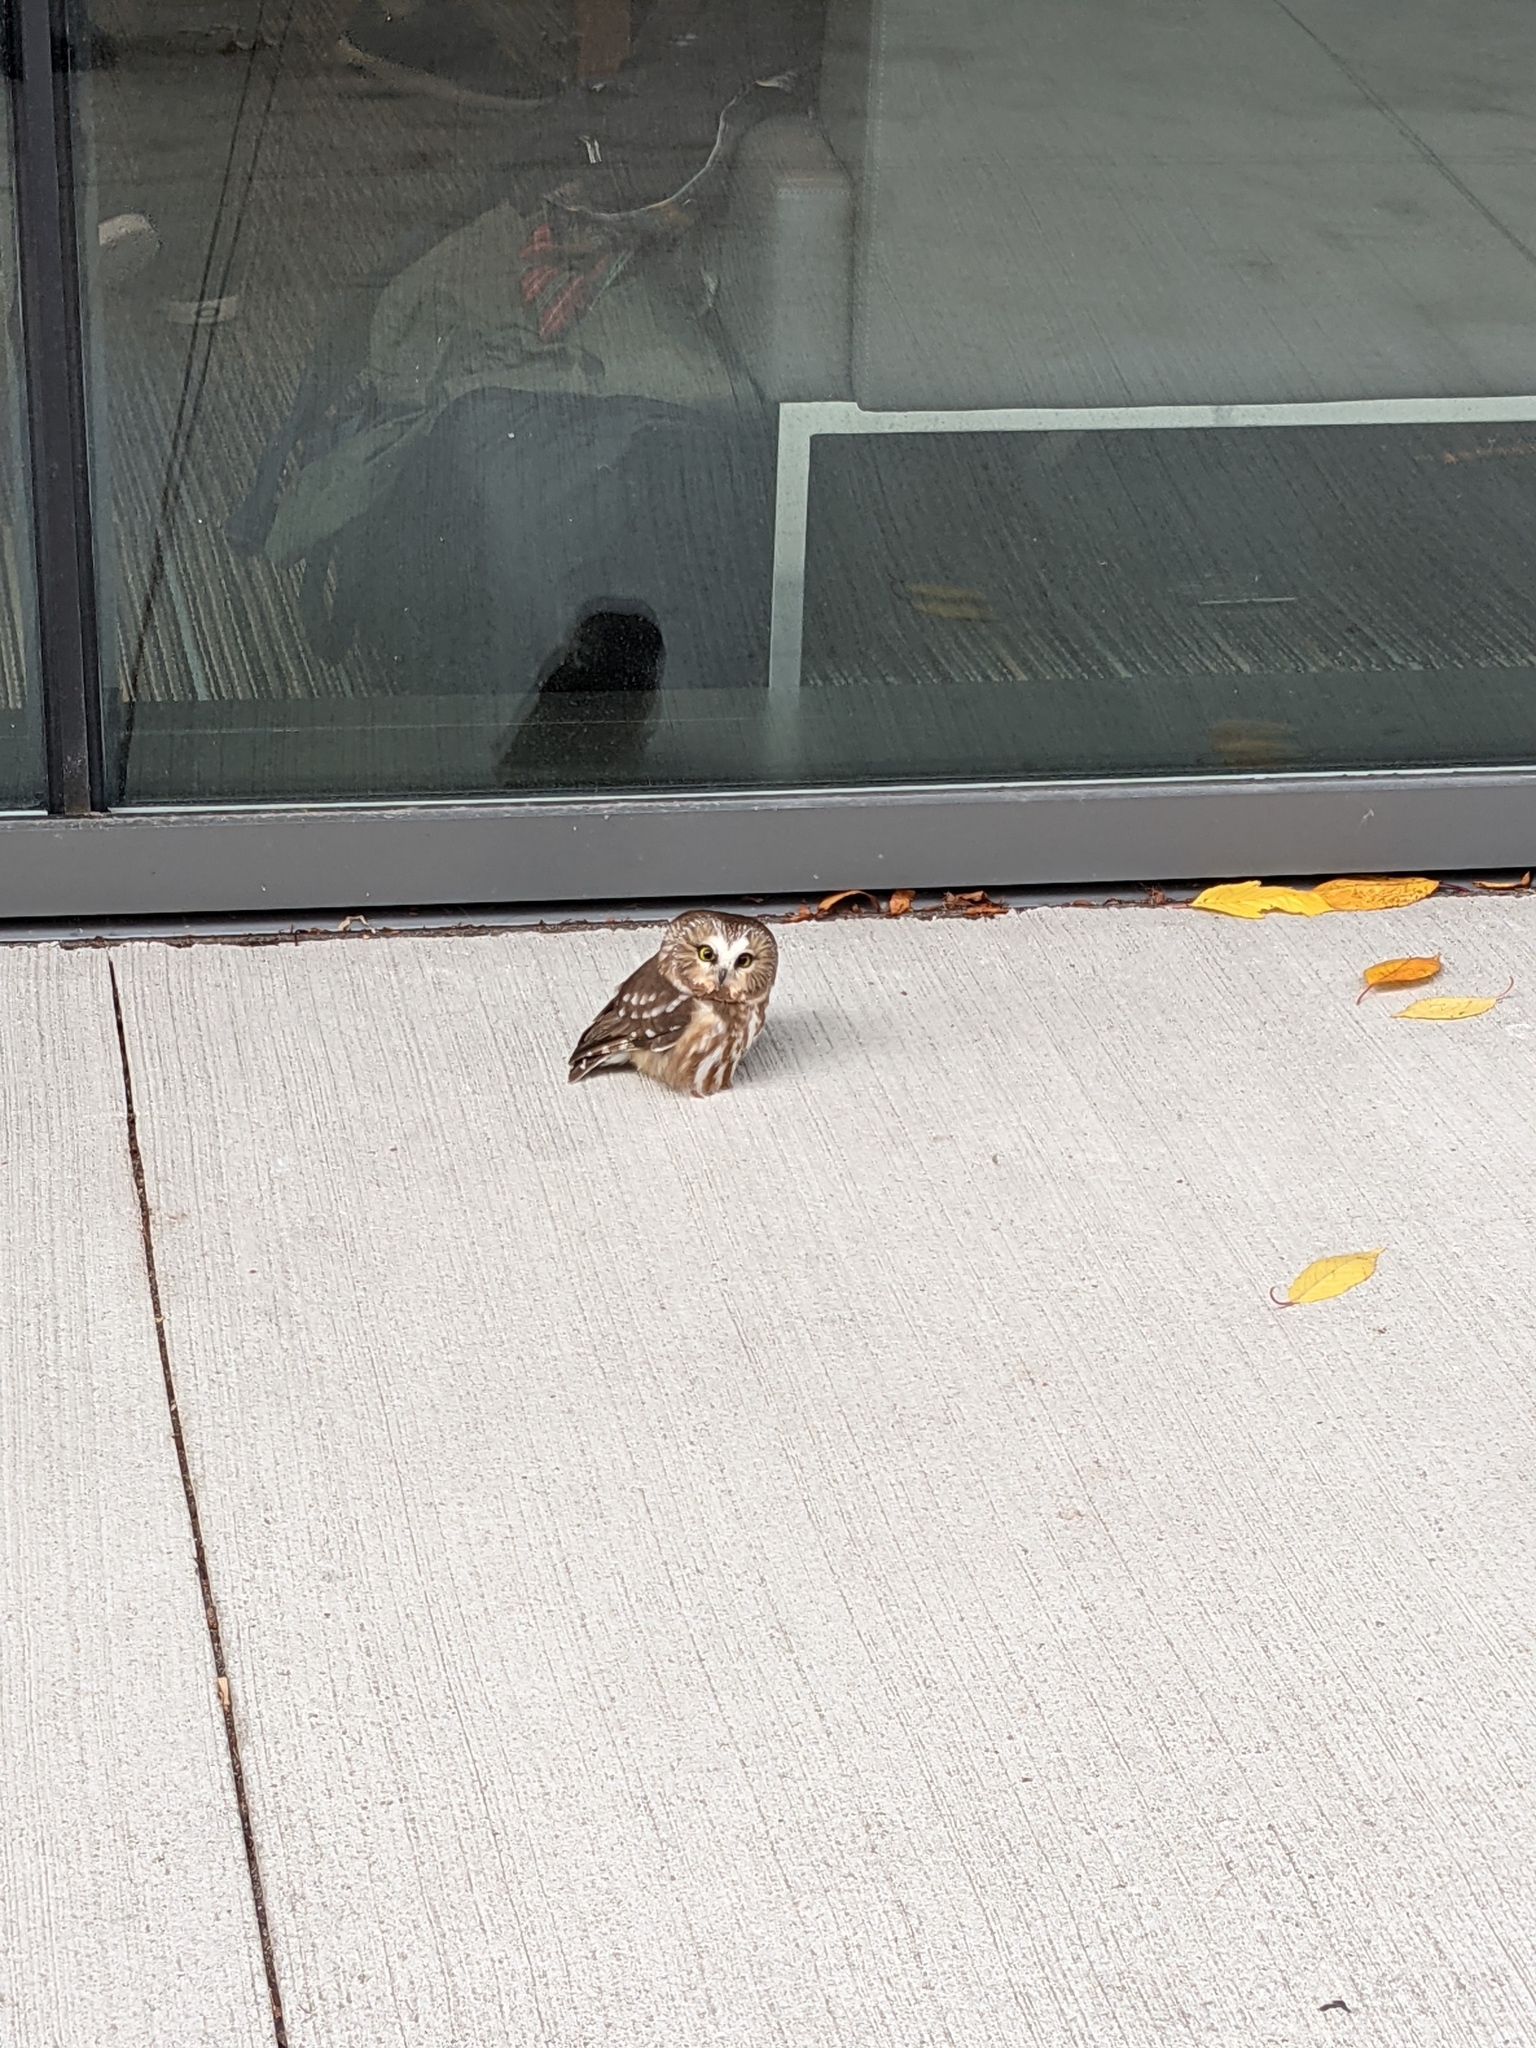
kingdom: Animalia
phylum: Chordata
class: Aves
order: Strigiformes
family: Strigidae
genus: Aegolius
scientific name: Aegolius acadicus
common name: Northern saw-whet owl
